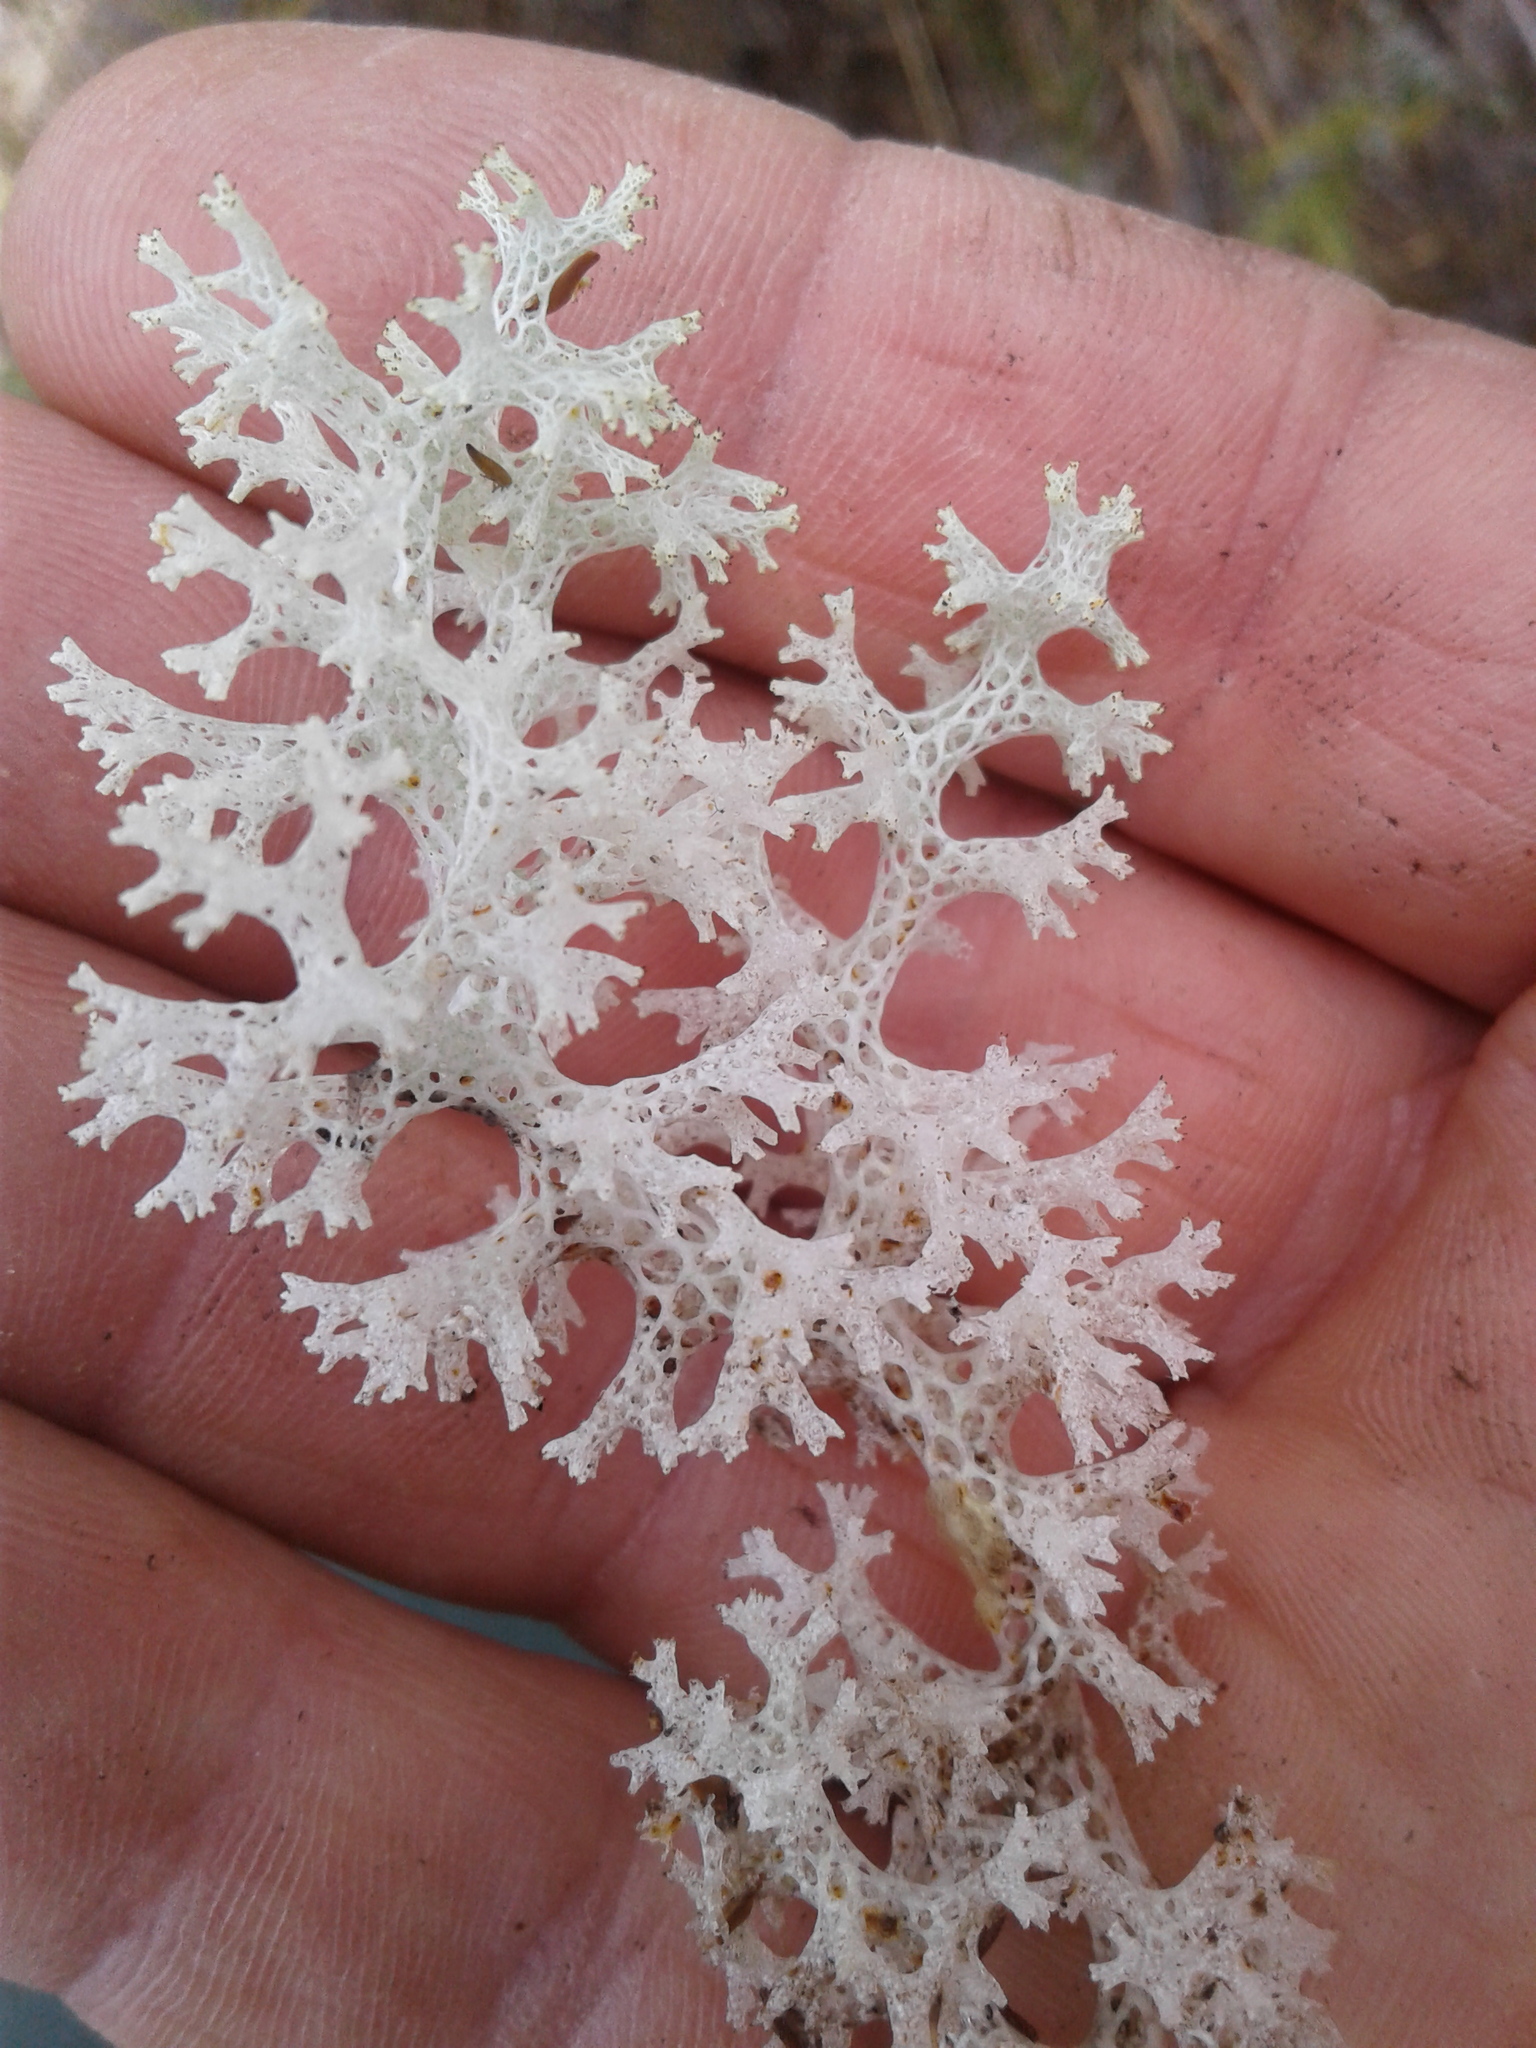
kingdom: Fungi
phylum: Ascomycota
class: Lecanoromycetes
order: Lecanorales
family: Cladoniaceae
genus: Pulchrocladia
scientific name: Pulchrocladia retipora
